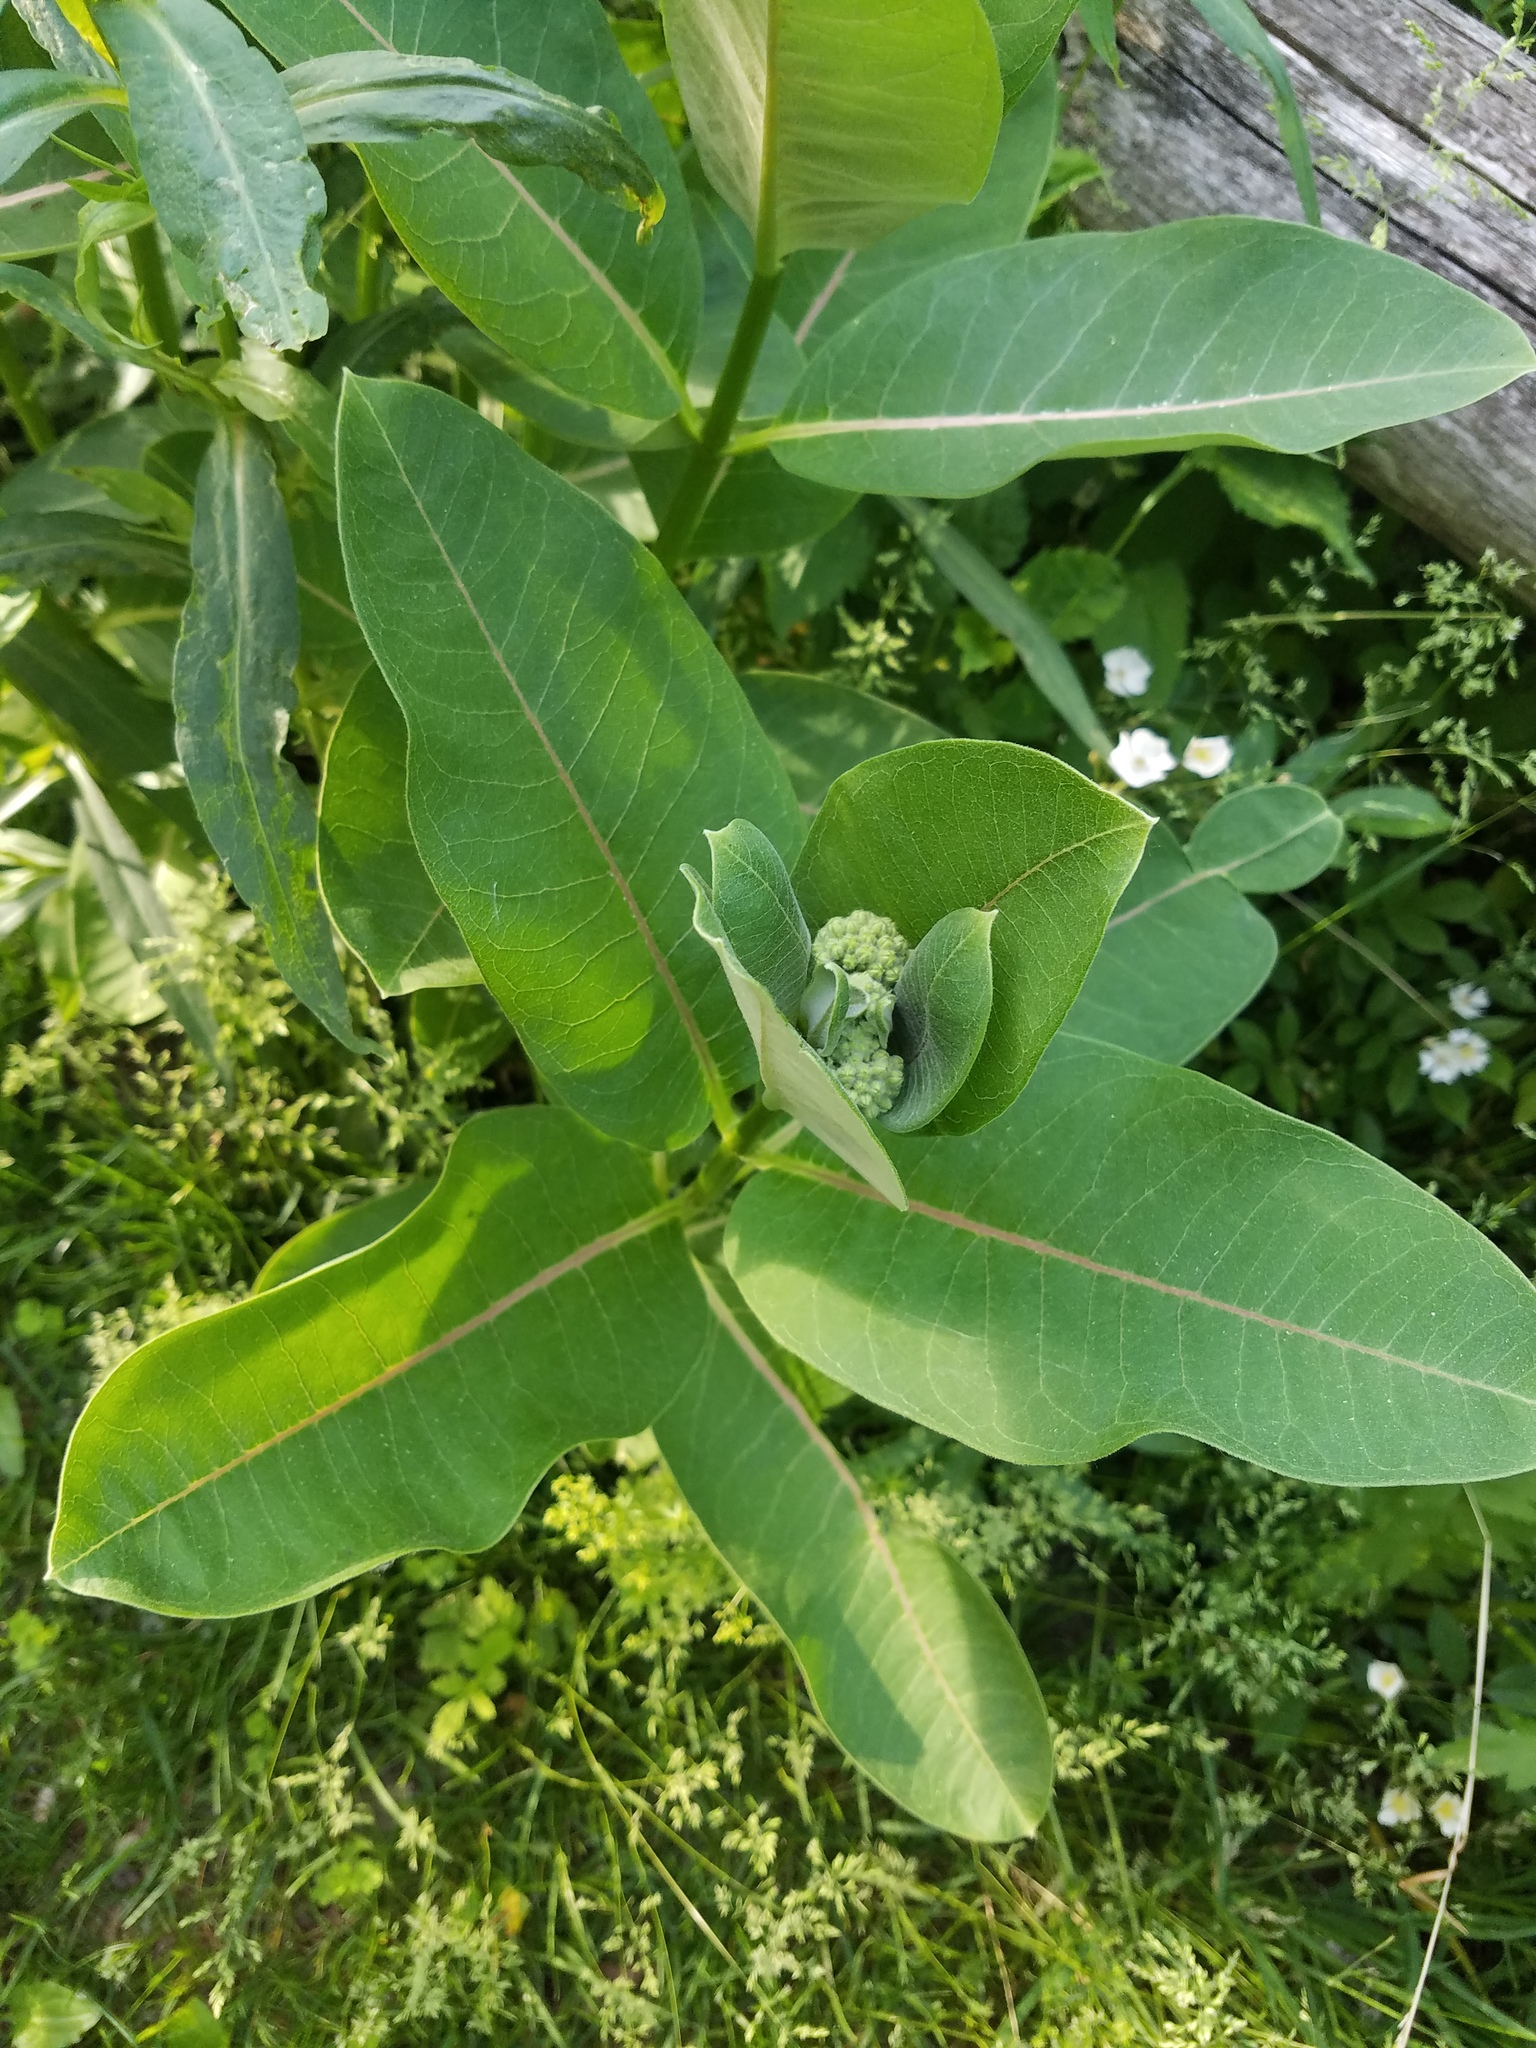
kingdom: Plantae
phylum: Tracheophyta
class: Magnoliopsida
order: Gentianales
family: Apocynaceae
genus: Asclepias
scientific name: Asclepias syriaca
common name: Common milkweed
